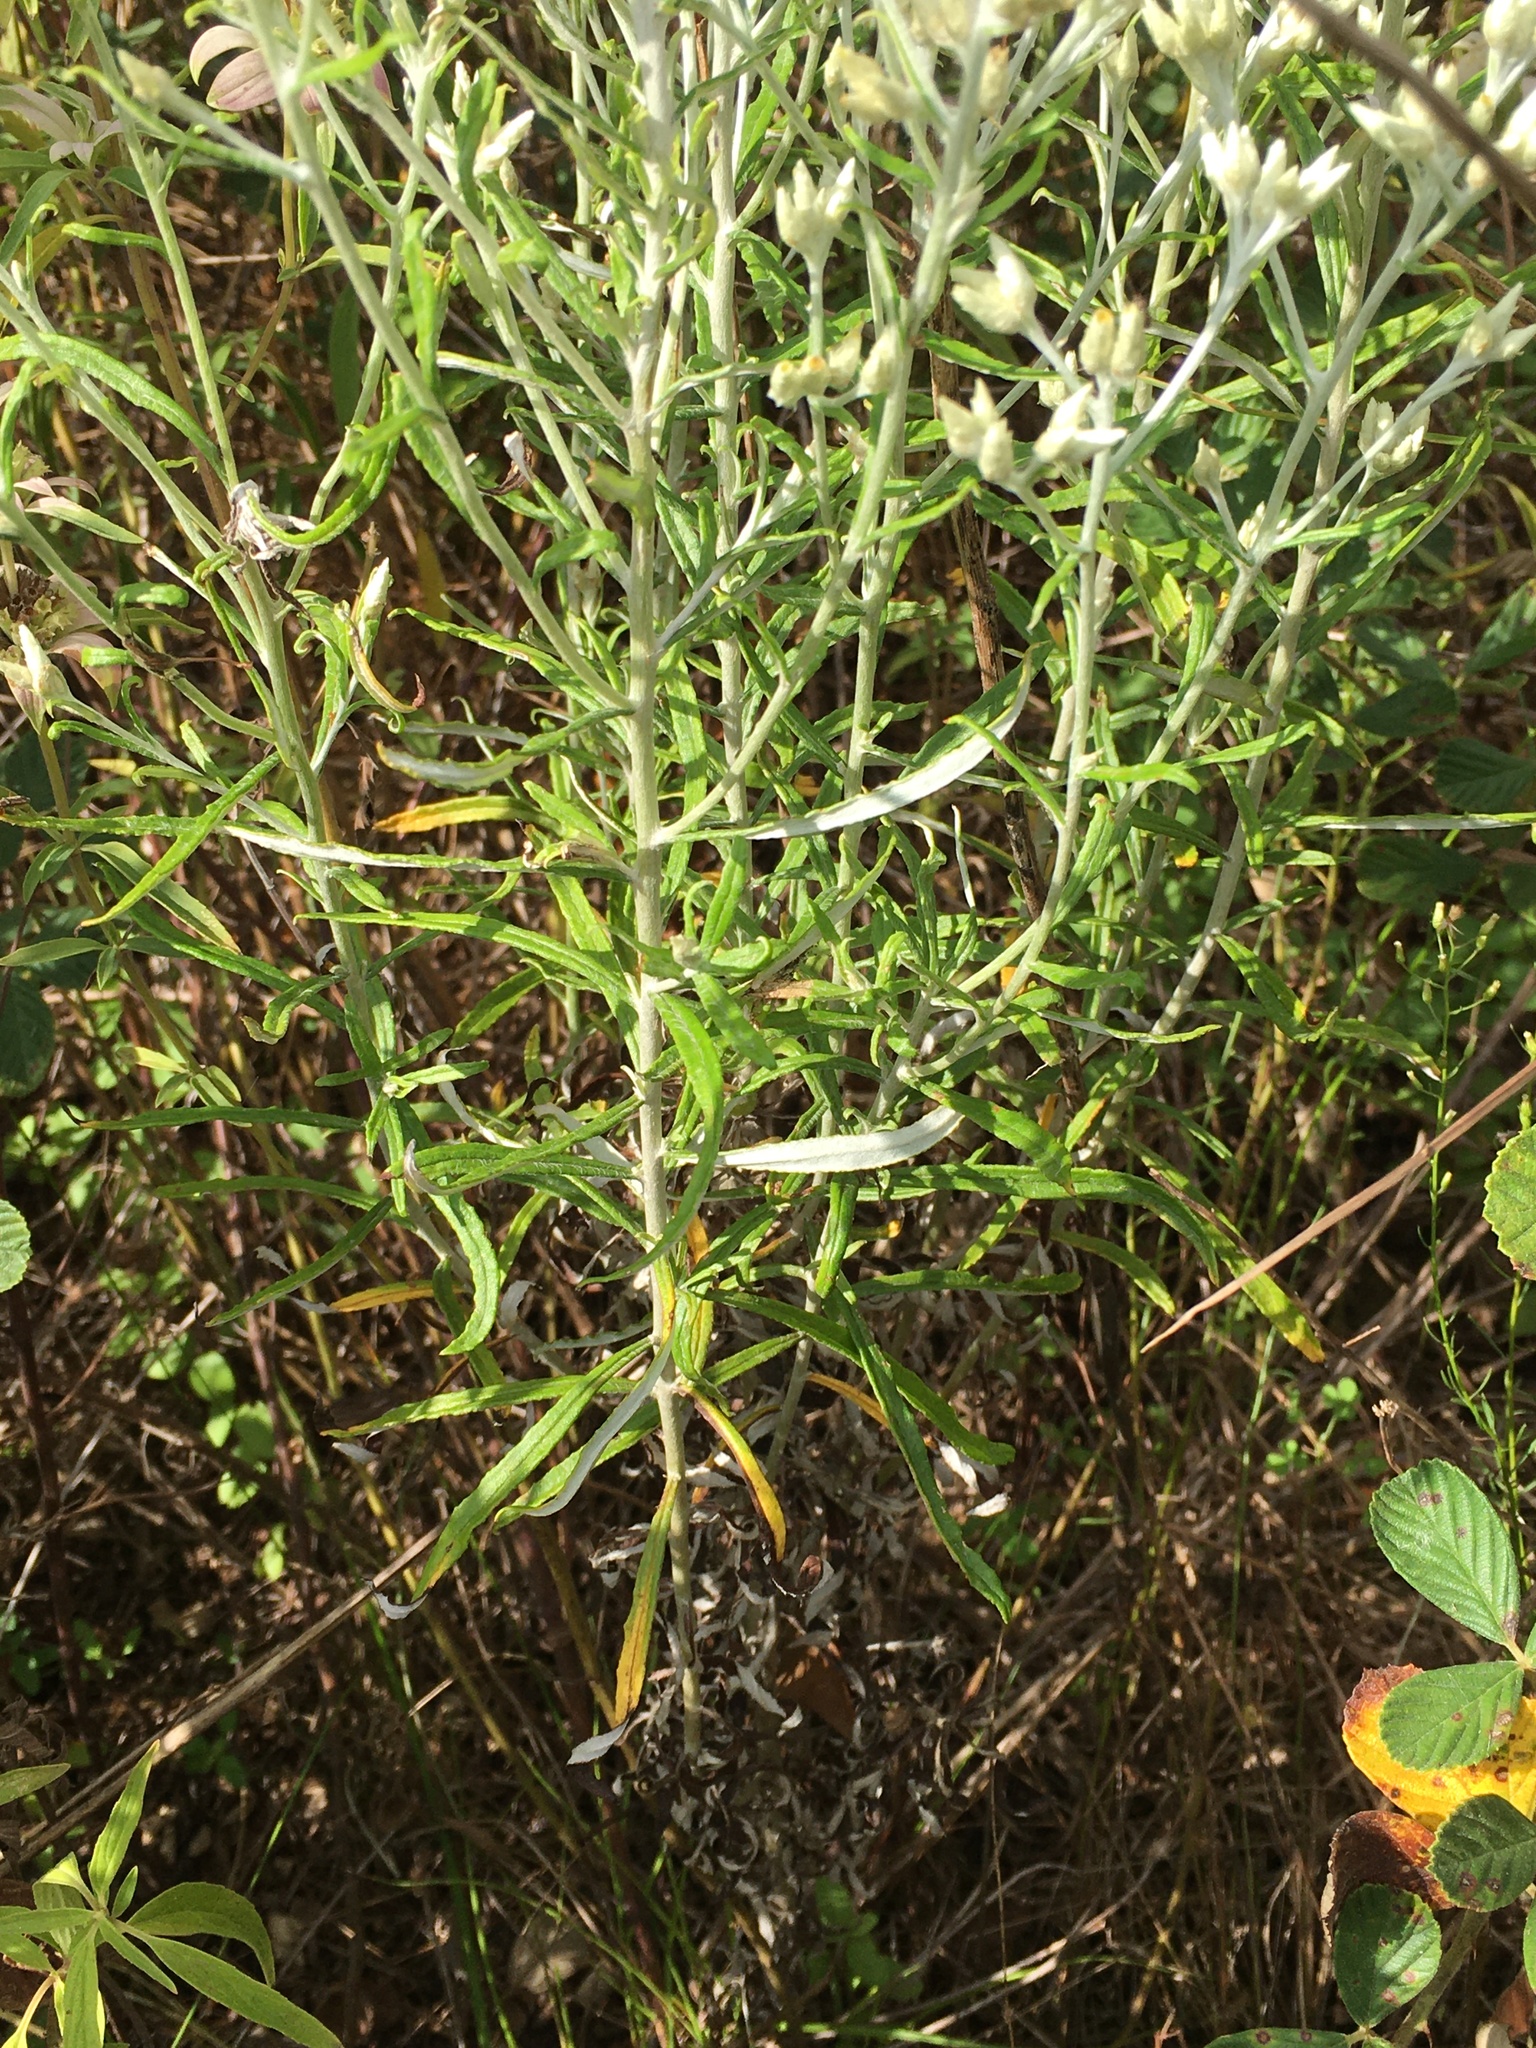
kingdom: Plantae
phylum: Tracheophyta
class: Magnoliopsida
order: Asterales
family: Asteraceae
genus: Pseudognaphalium
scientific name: Pseudognaphalium obtusifolium
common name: Eastern rabbit-tobacco
